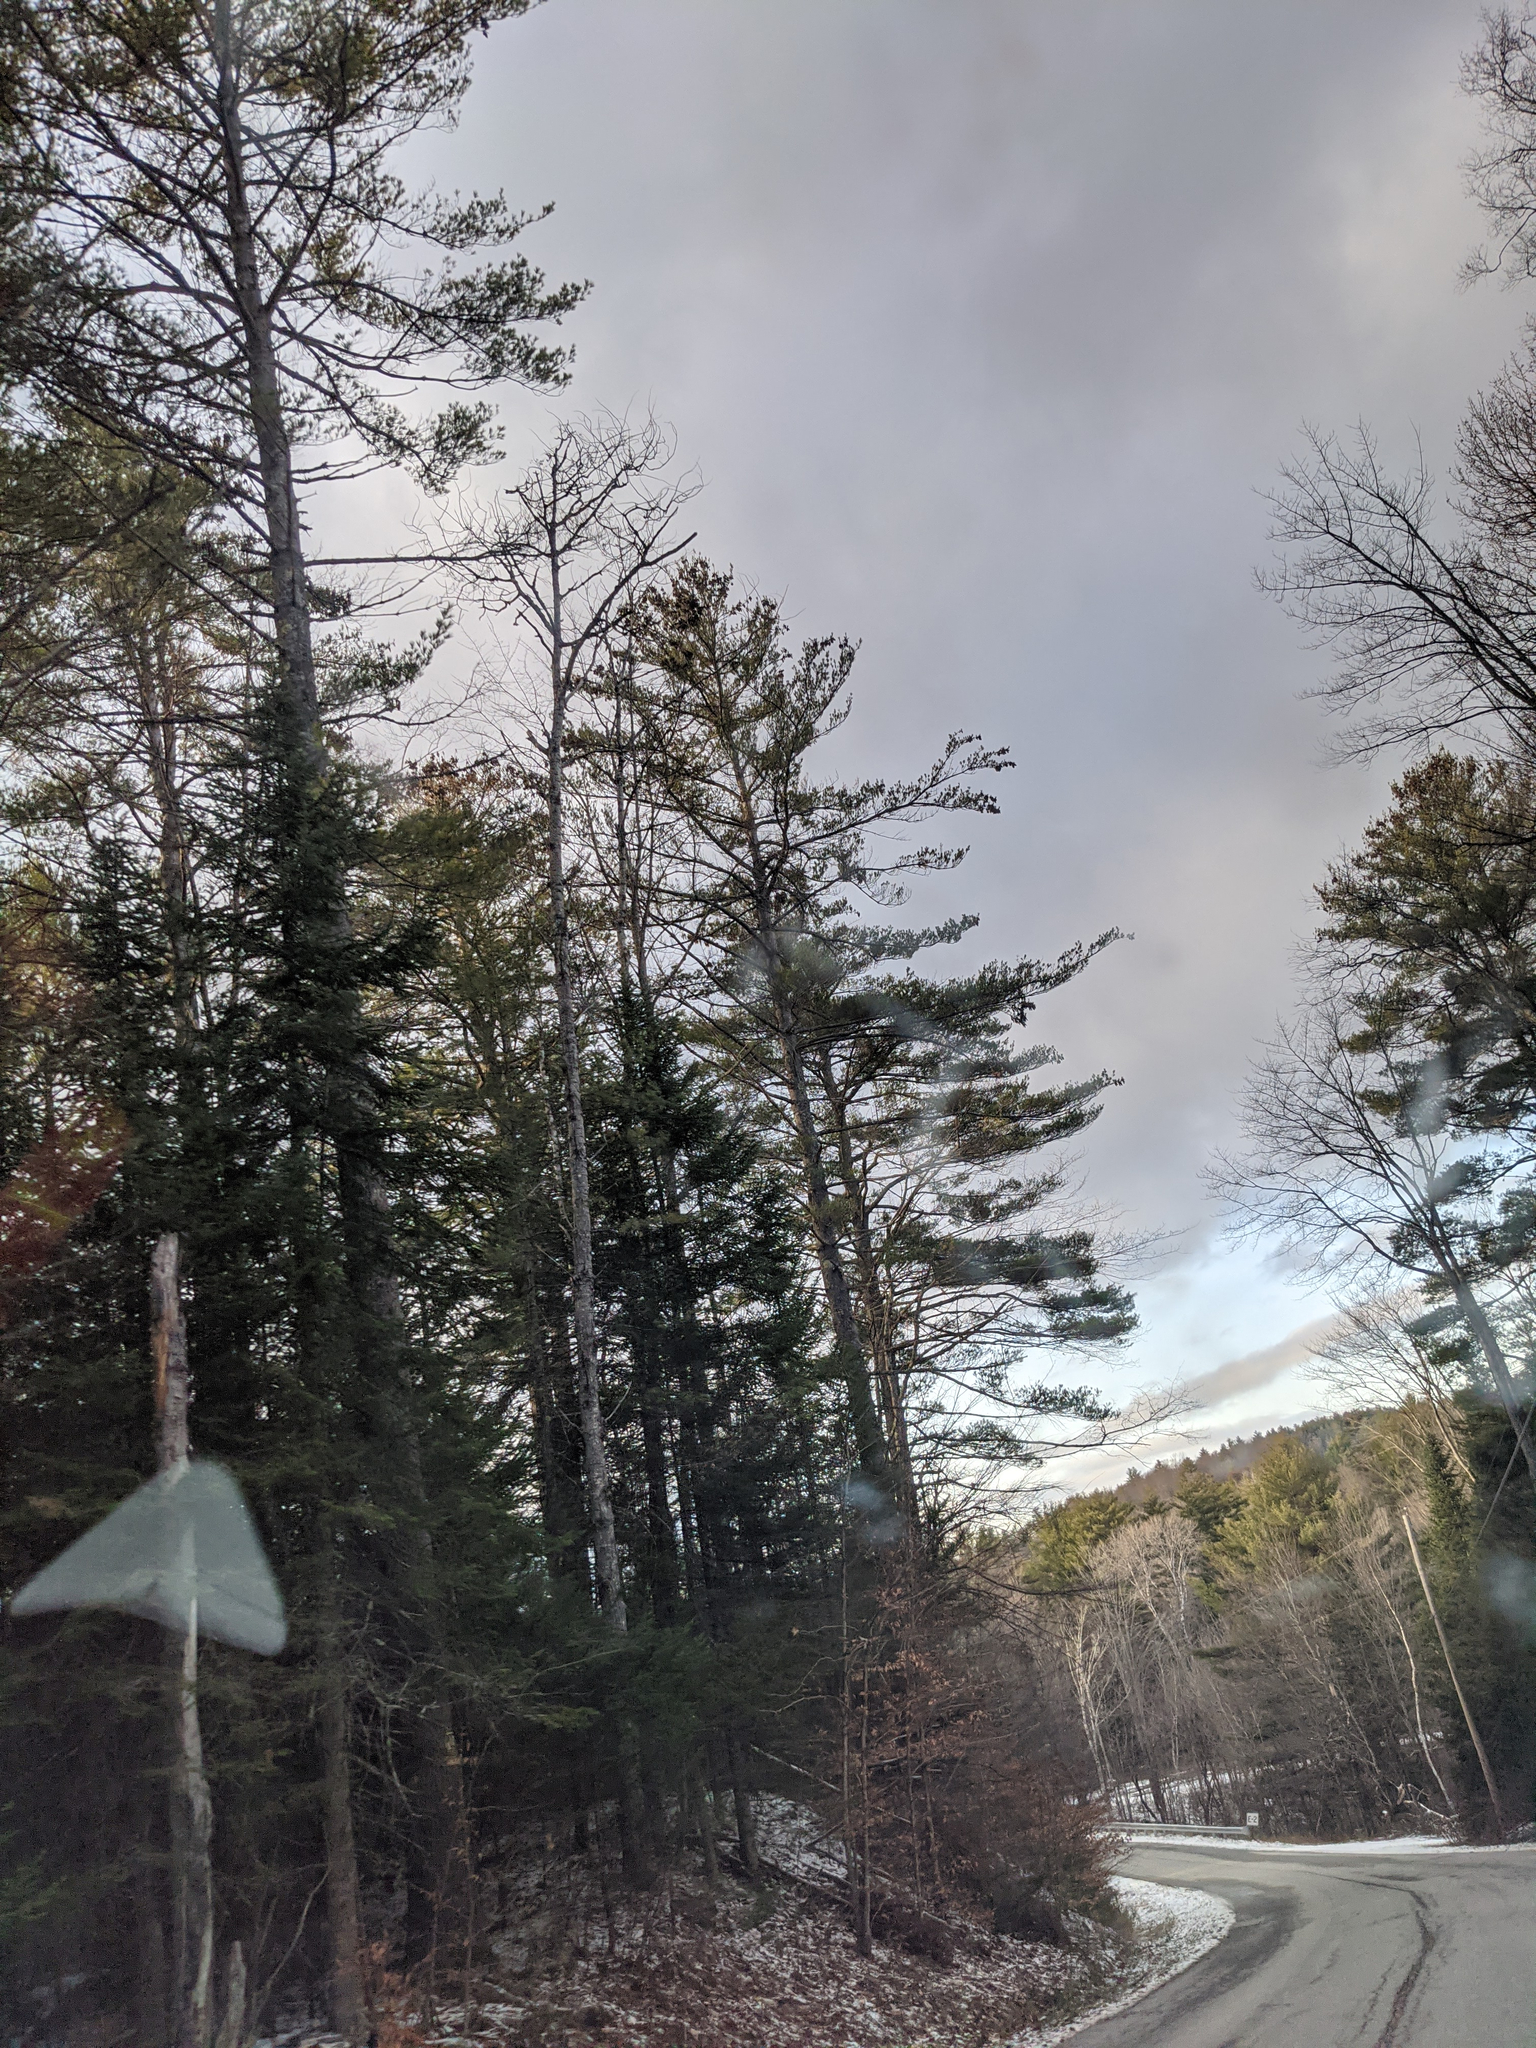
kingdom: Plantae
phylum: Tracheophyta
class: Pinopsida
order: Pinales
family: Pinaceae
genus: Pinus
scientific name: Pinus strobus
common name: Weymouth pine
